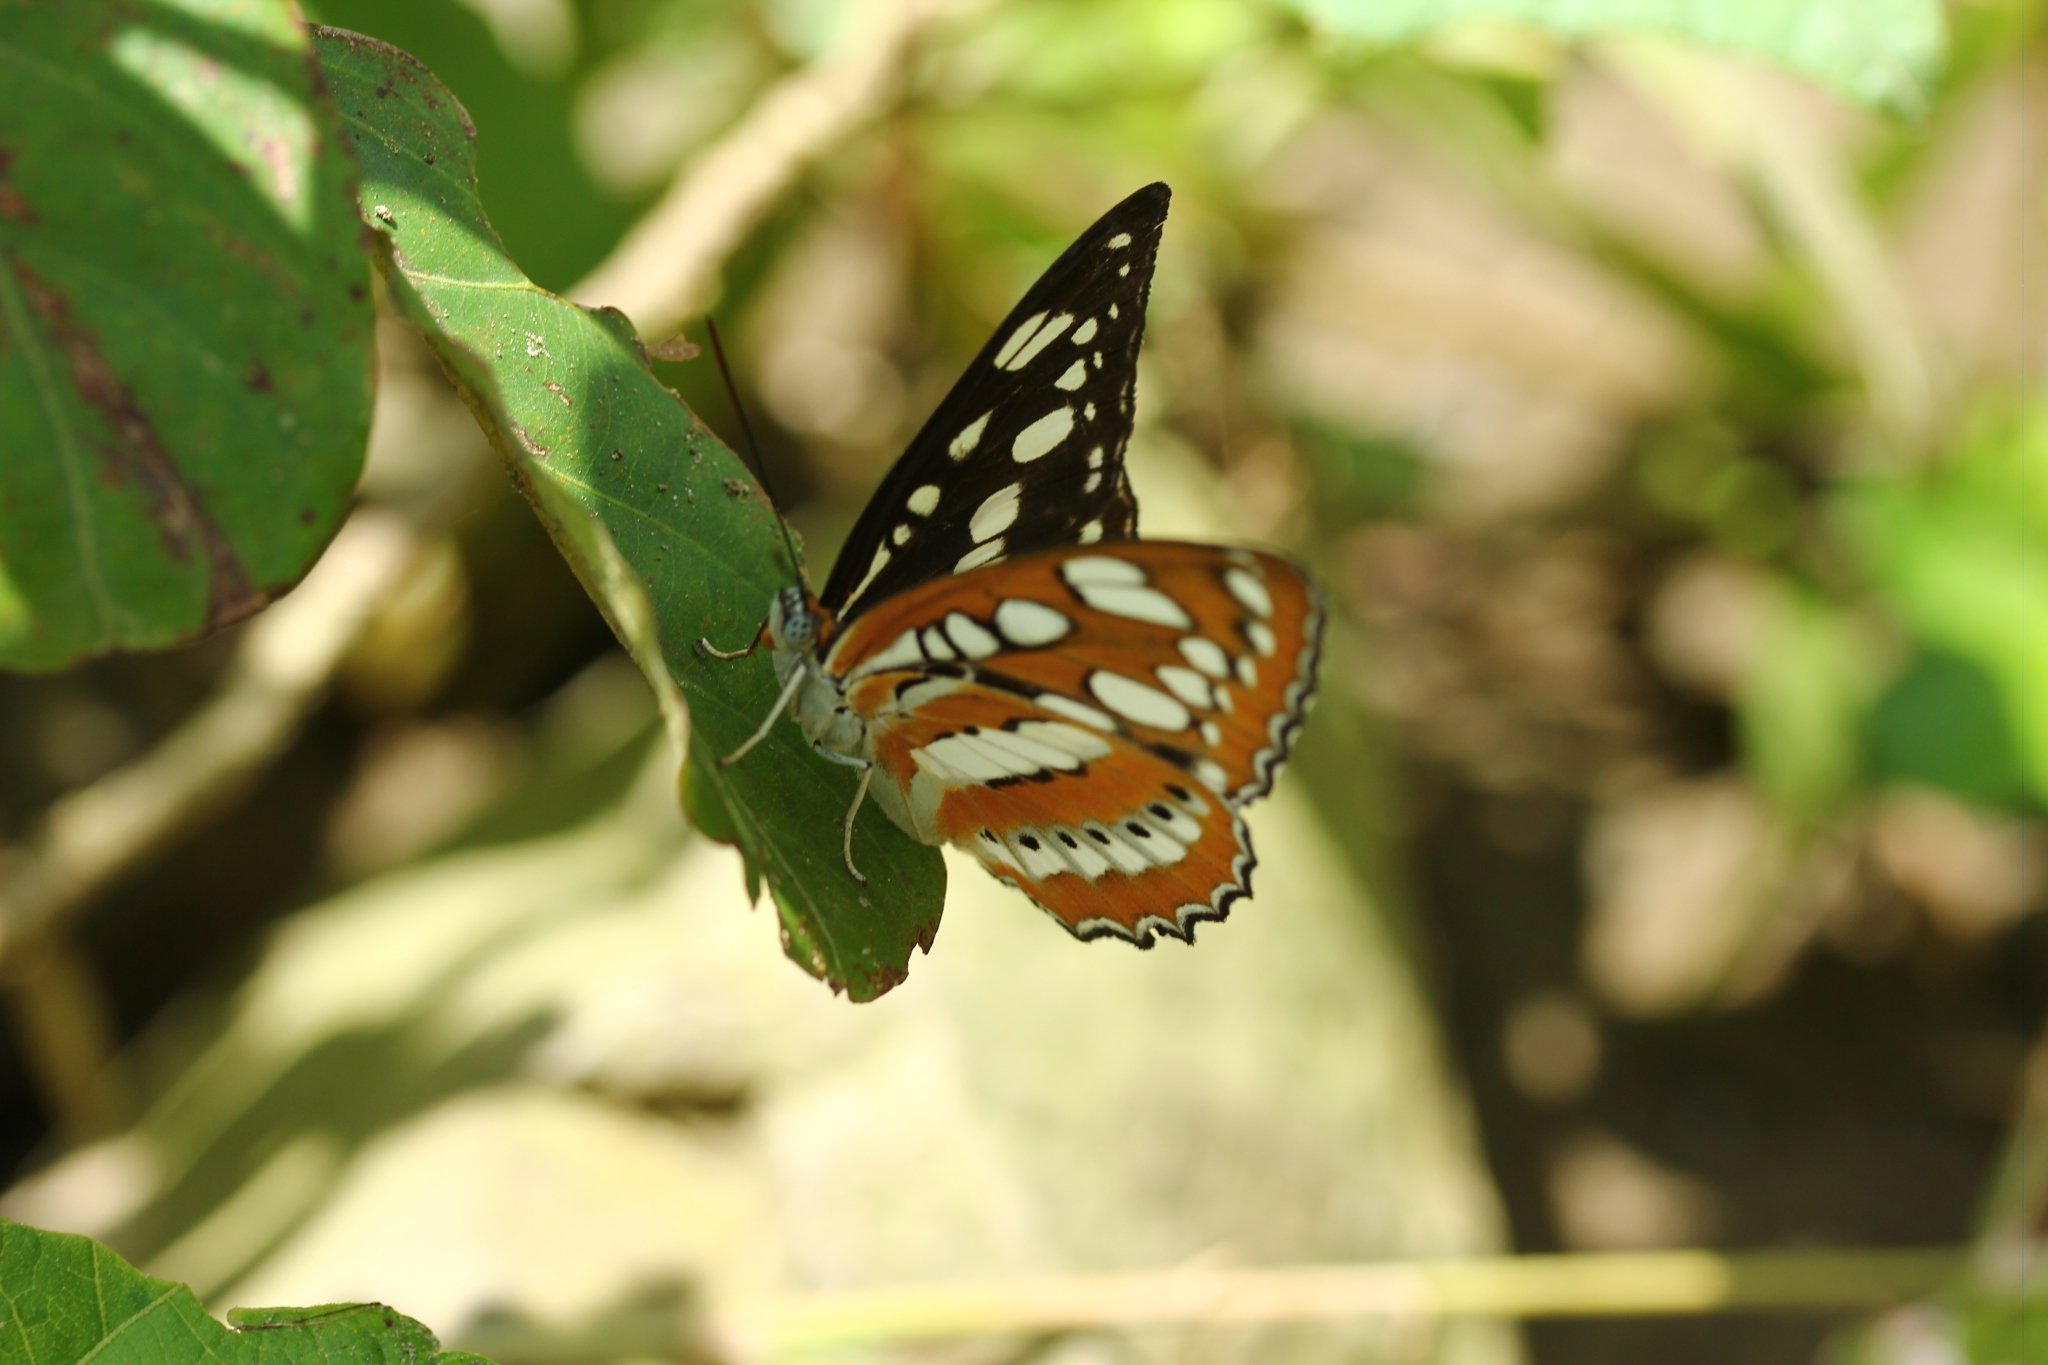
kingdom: Animalia
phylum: Arthropoda
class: Insecta
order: Lepidoptera
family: Nymphalidae
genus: Parathyma
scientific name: Parathyma perius
